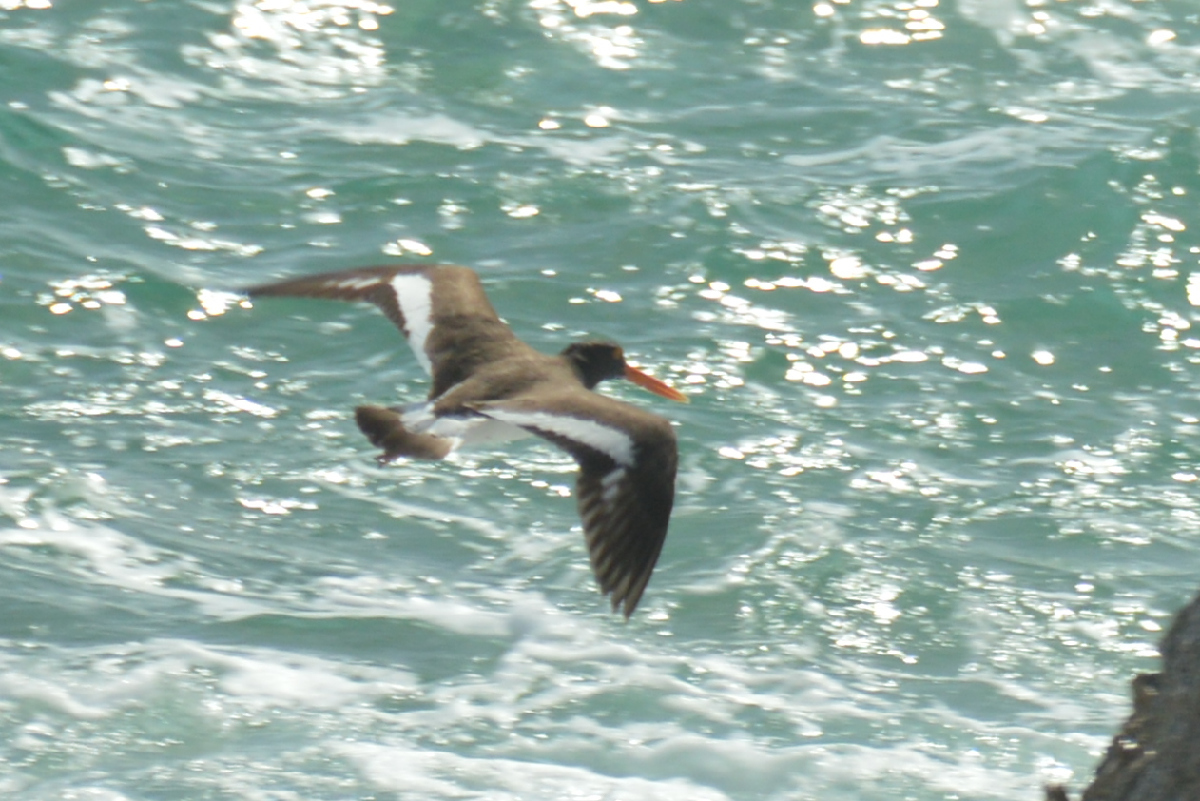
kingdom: Animalia
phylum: Chordata
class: Aves
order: Charadriiformes
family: Haematopodidae
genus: Haematopus
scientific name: Haematopus palliatus
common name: American oystercatcher
